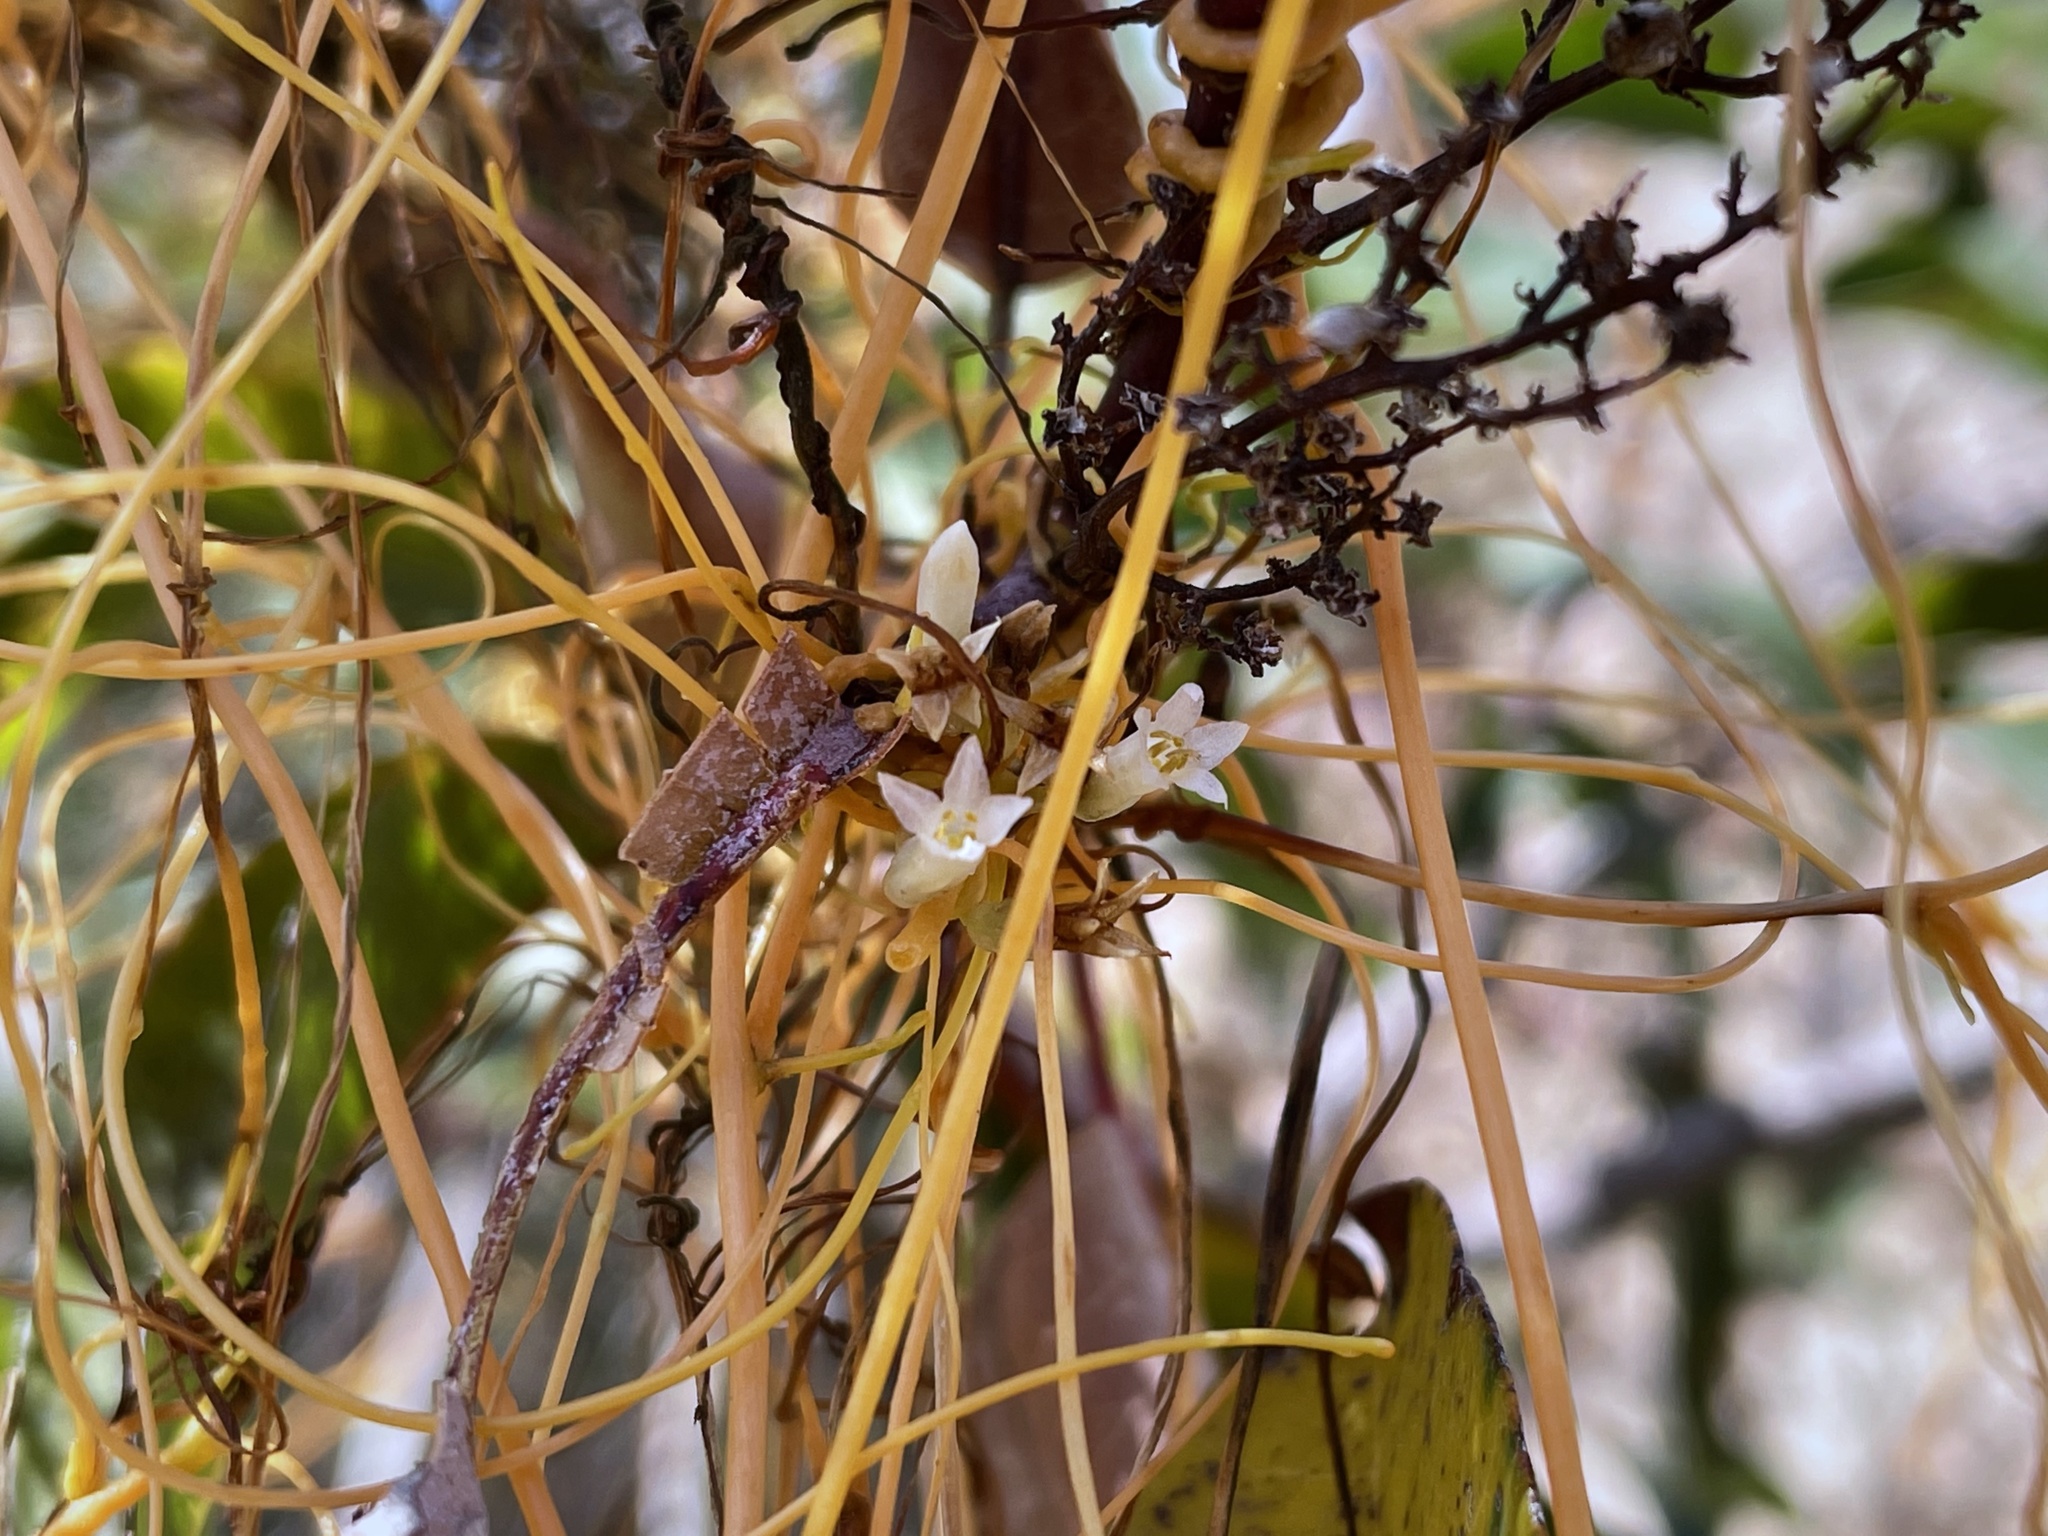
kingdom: Plantae
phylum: Tracheophyta
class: Magnoliopsida
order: Solanales
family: Convolvulaceae
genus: Cuscuta
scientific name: Cuscuta subinclusa
